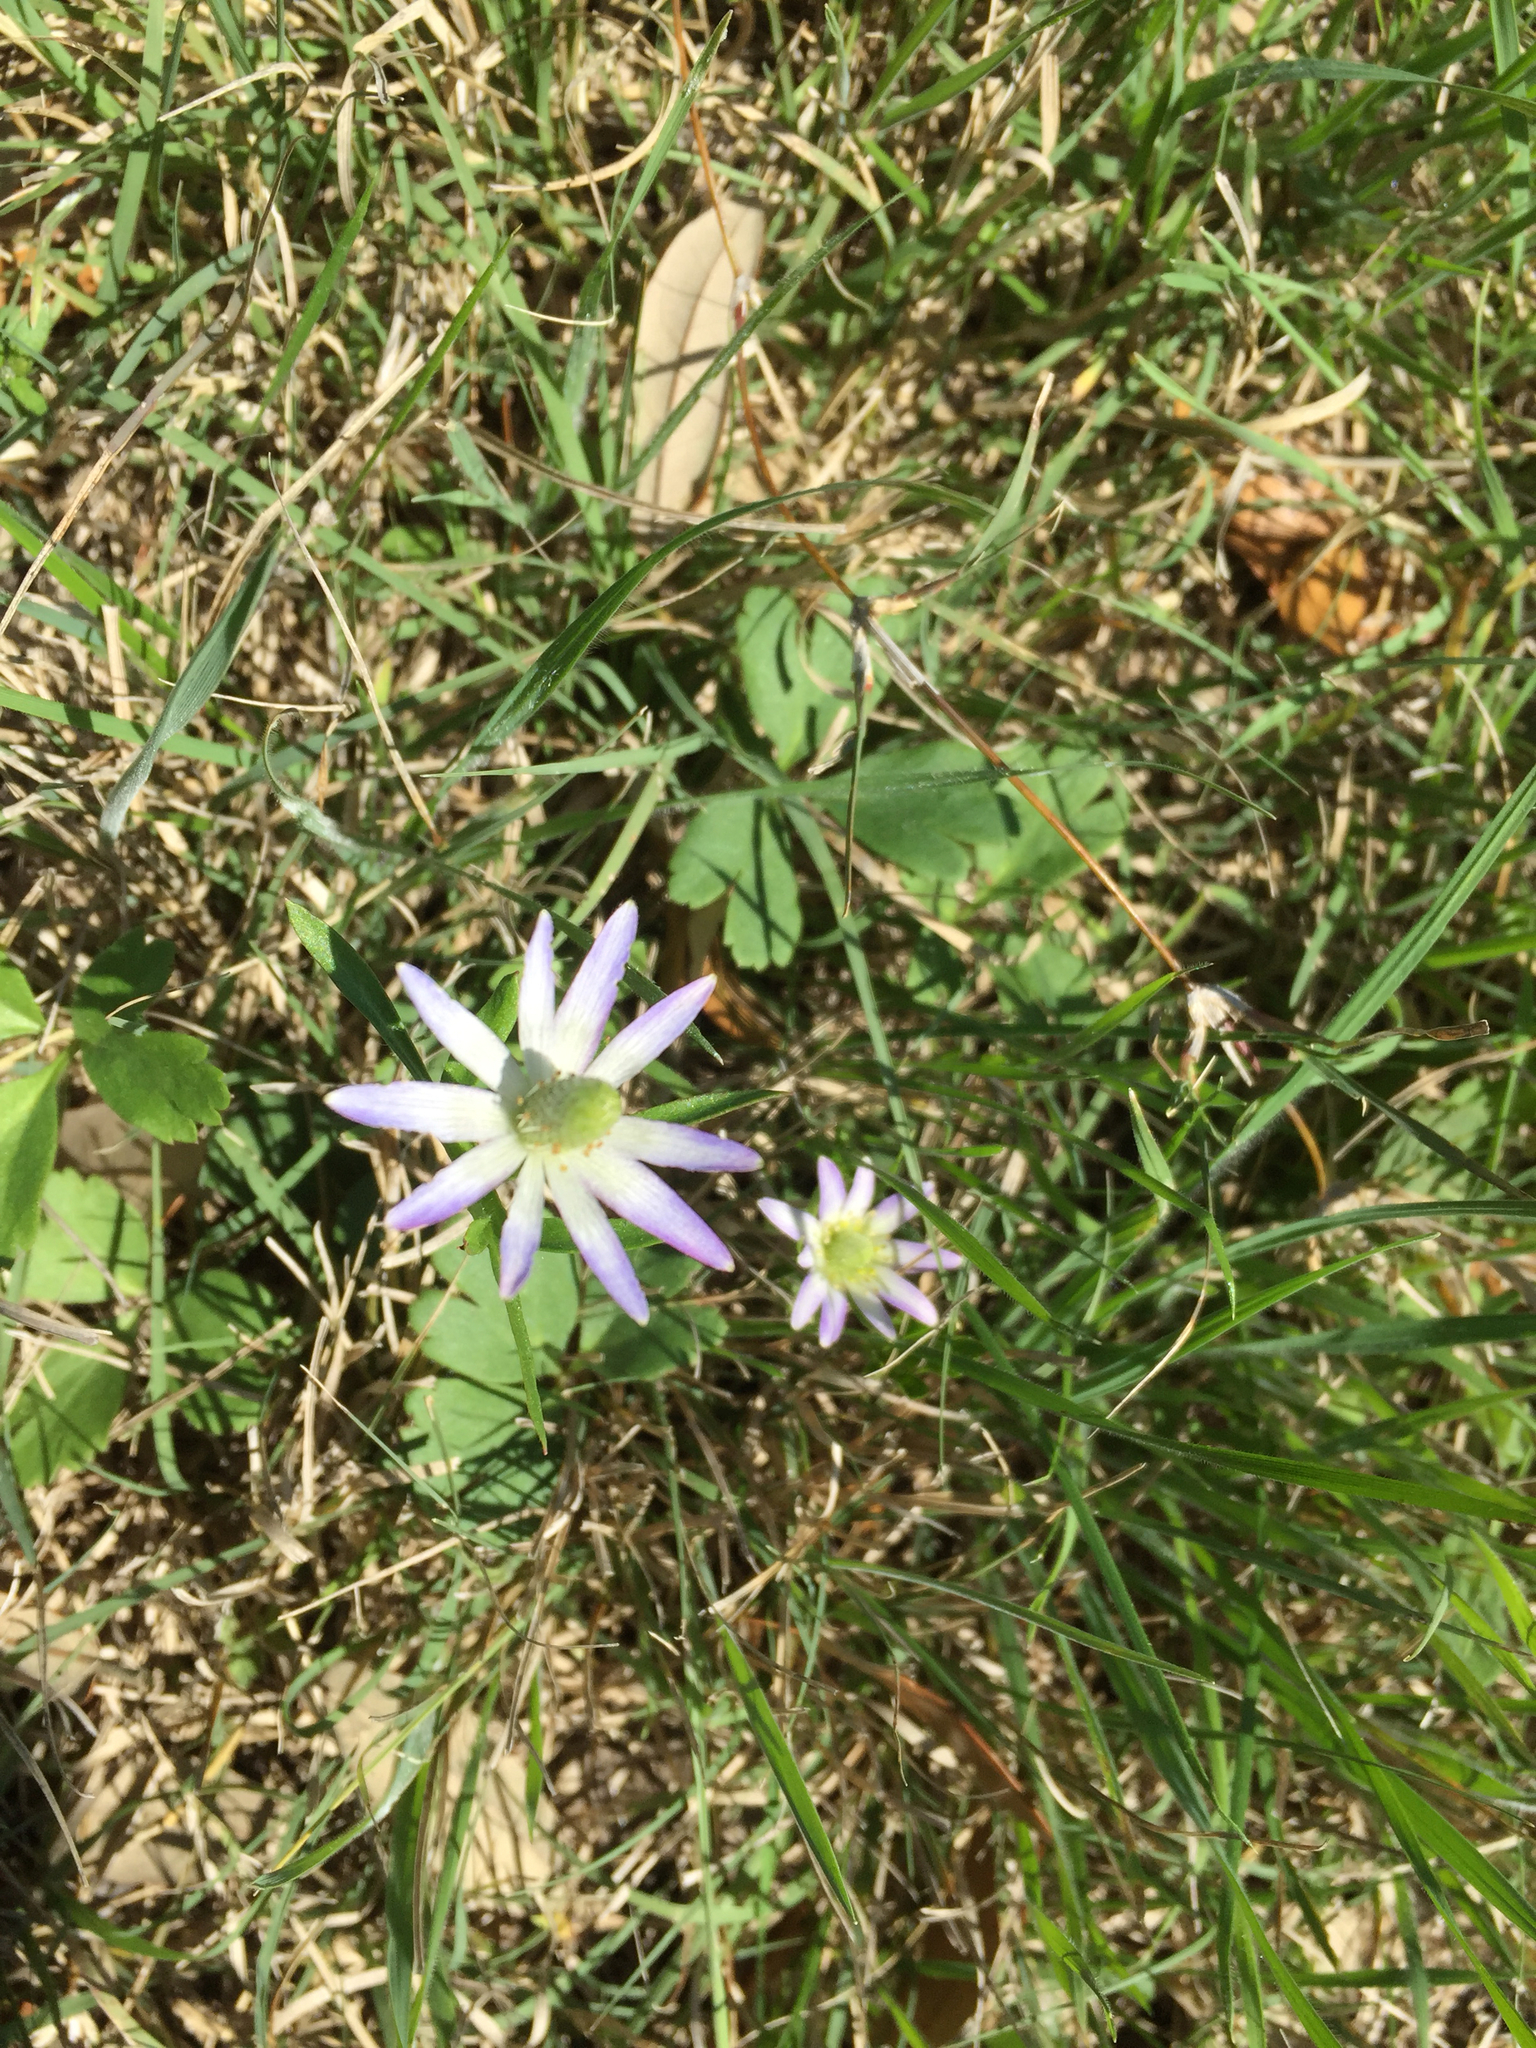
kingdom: Plantae
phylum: Tracheophyta
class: Magnoliopsida
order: Ranunculales
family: Ranunculaceae
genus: Anemone
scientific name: Anemone berlandieri
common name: Ten-petal anemone
